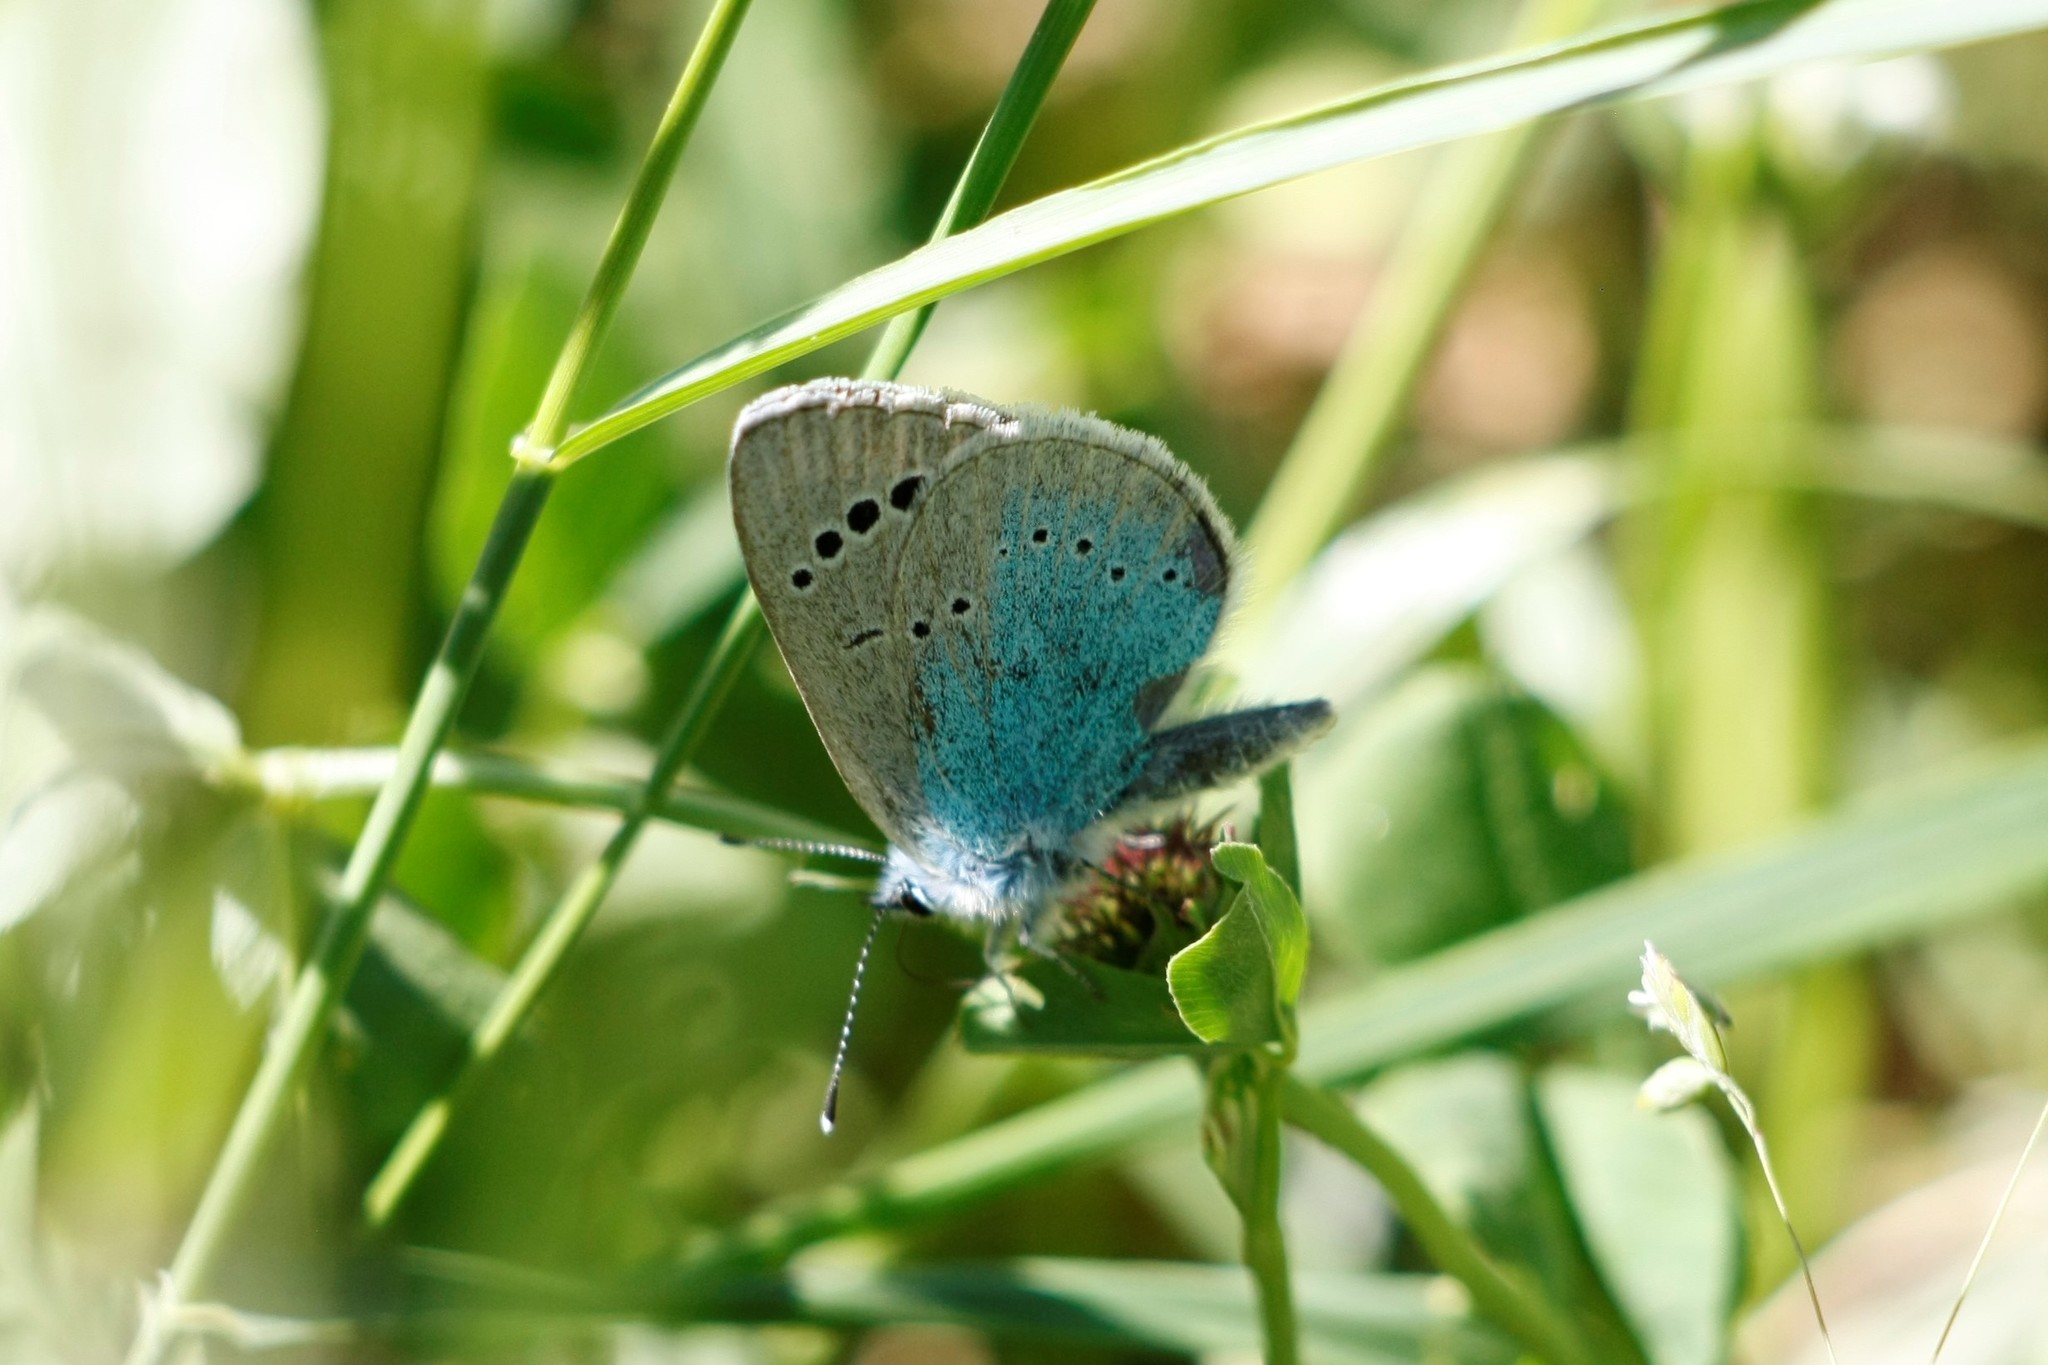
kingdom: Animalia
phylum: Arthropoda
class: Insecta
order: Lepidoptera
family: Lycaenidae
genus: Glaucopsyche
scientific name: Glaucopsyche alexis
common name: Green-underside blue
